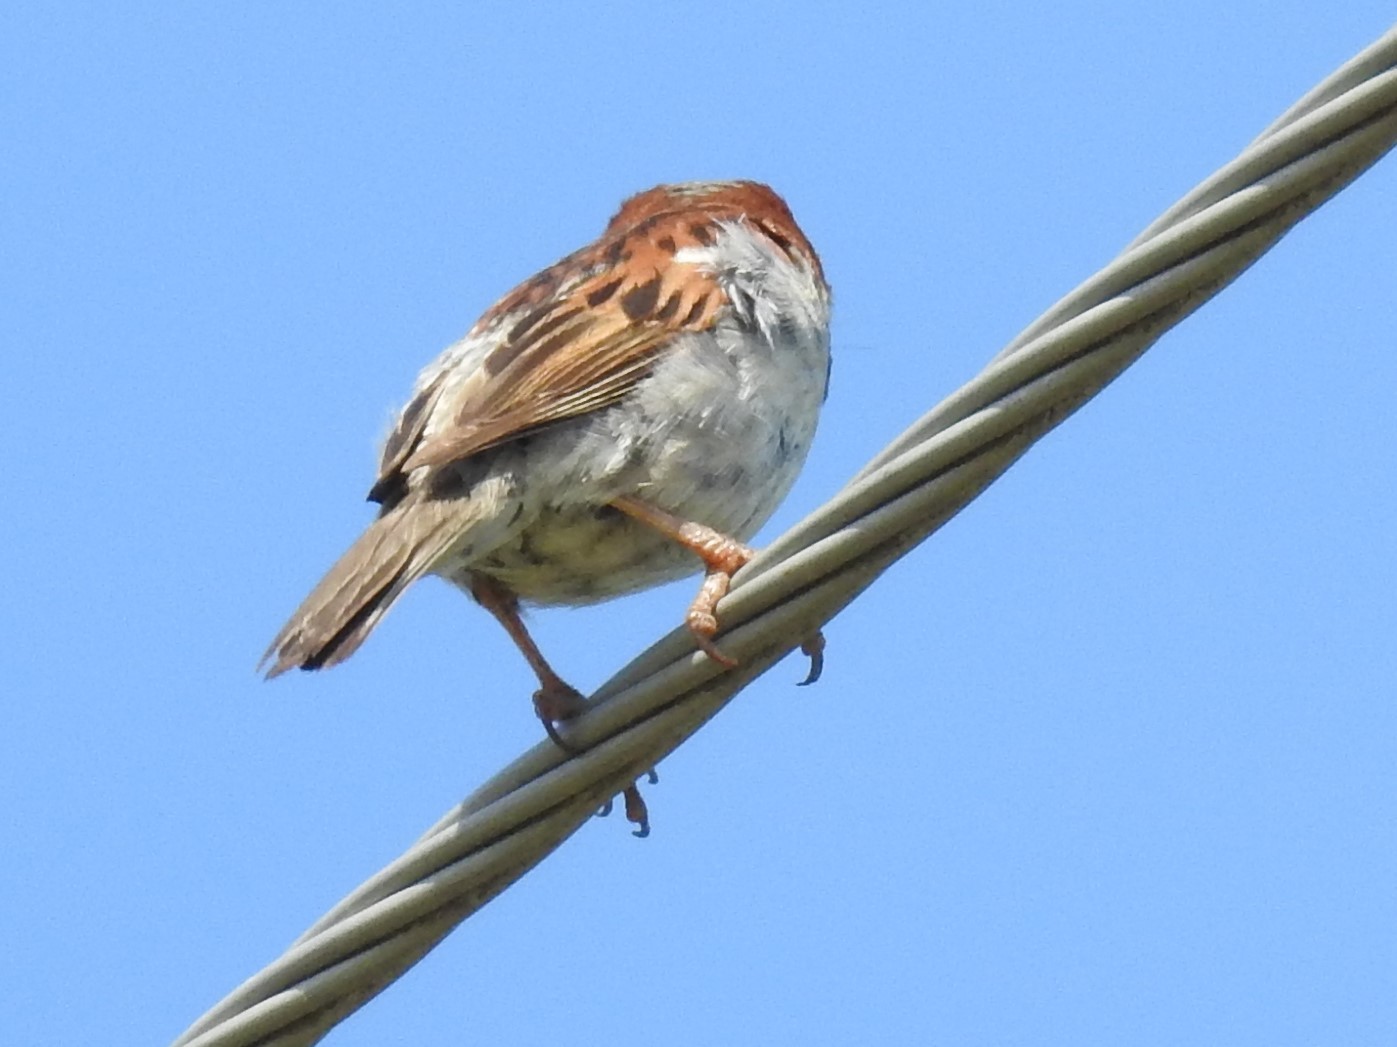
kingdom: Animalia
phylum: Chordata
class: Aves
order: Passeriformes
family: Passeridae
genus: Passer
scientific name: Passer domesticus
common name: House sparrow
